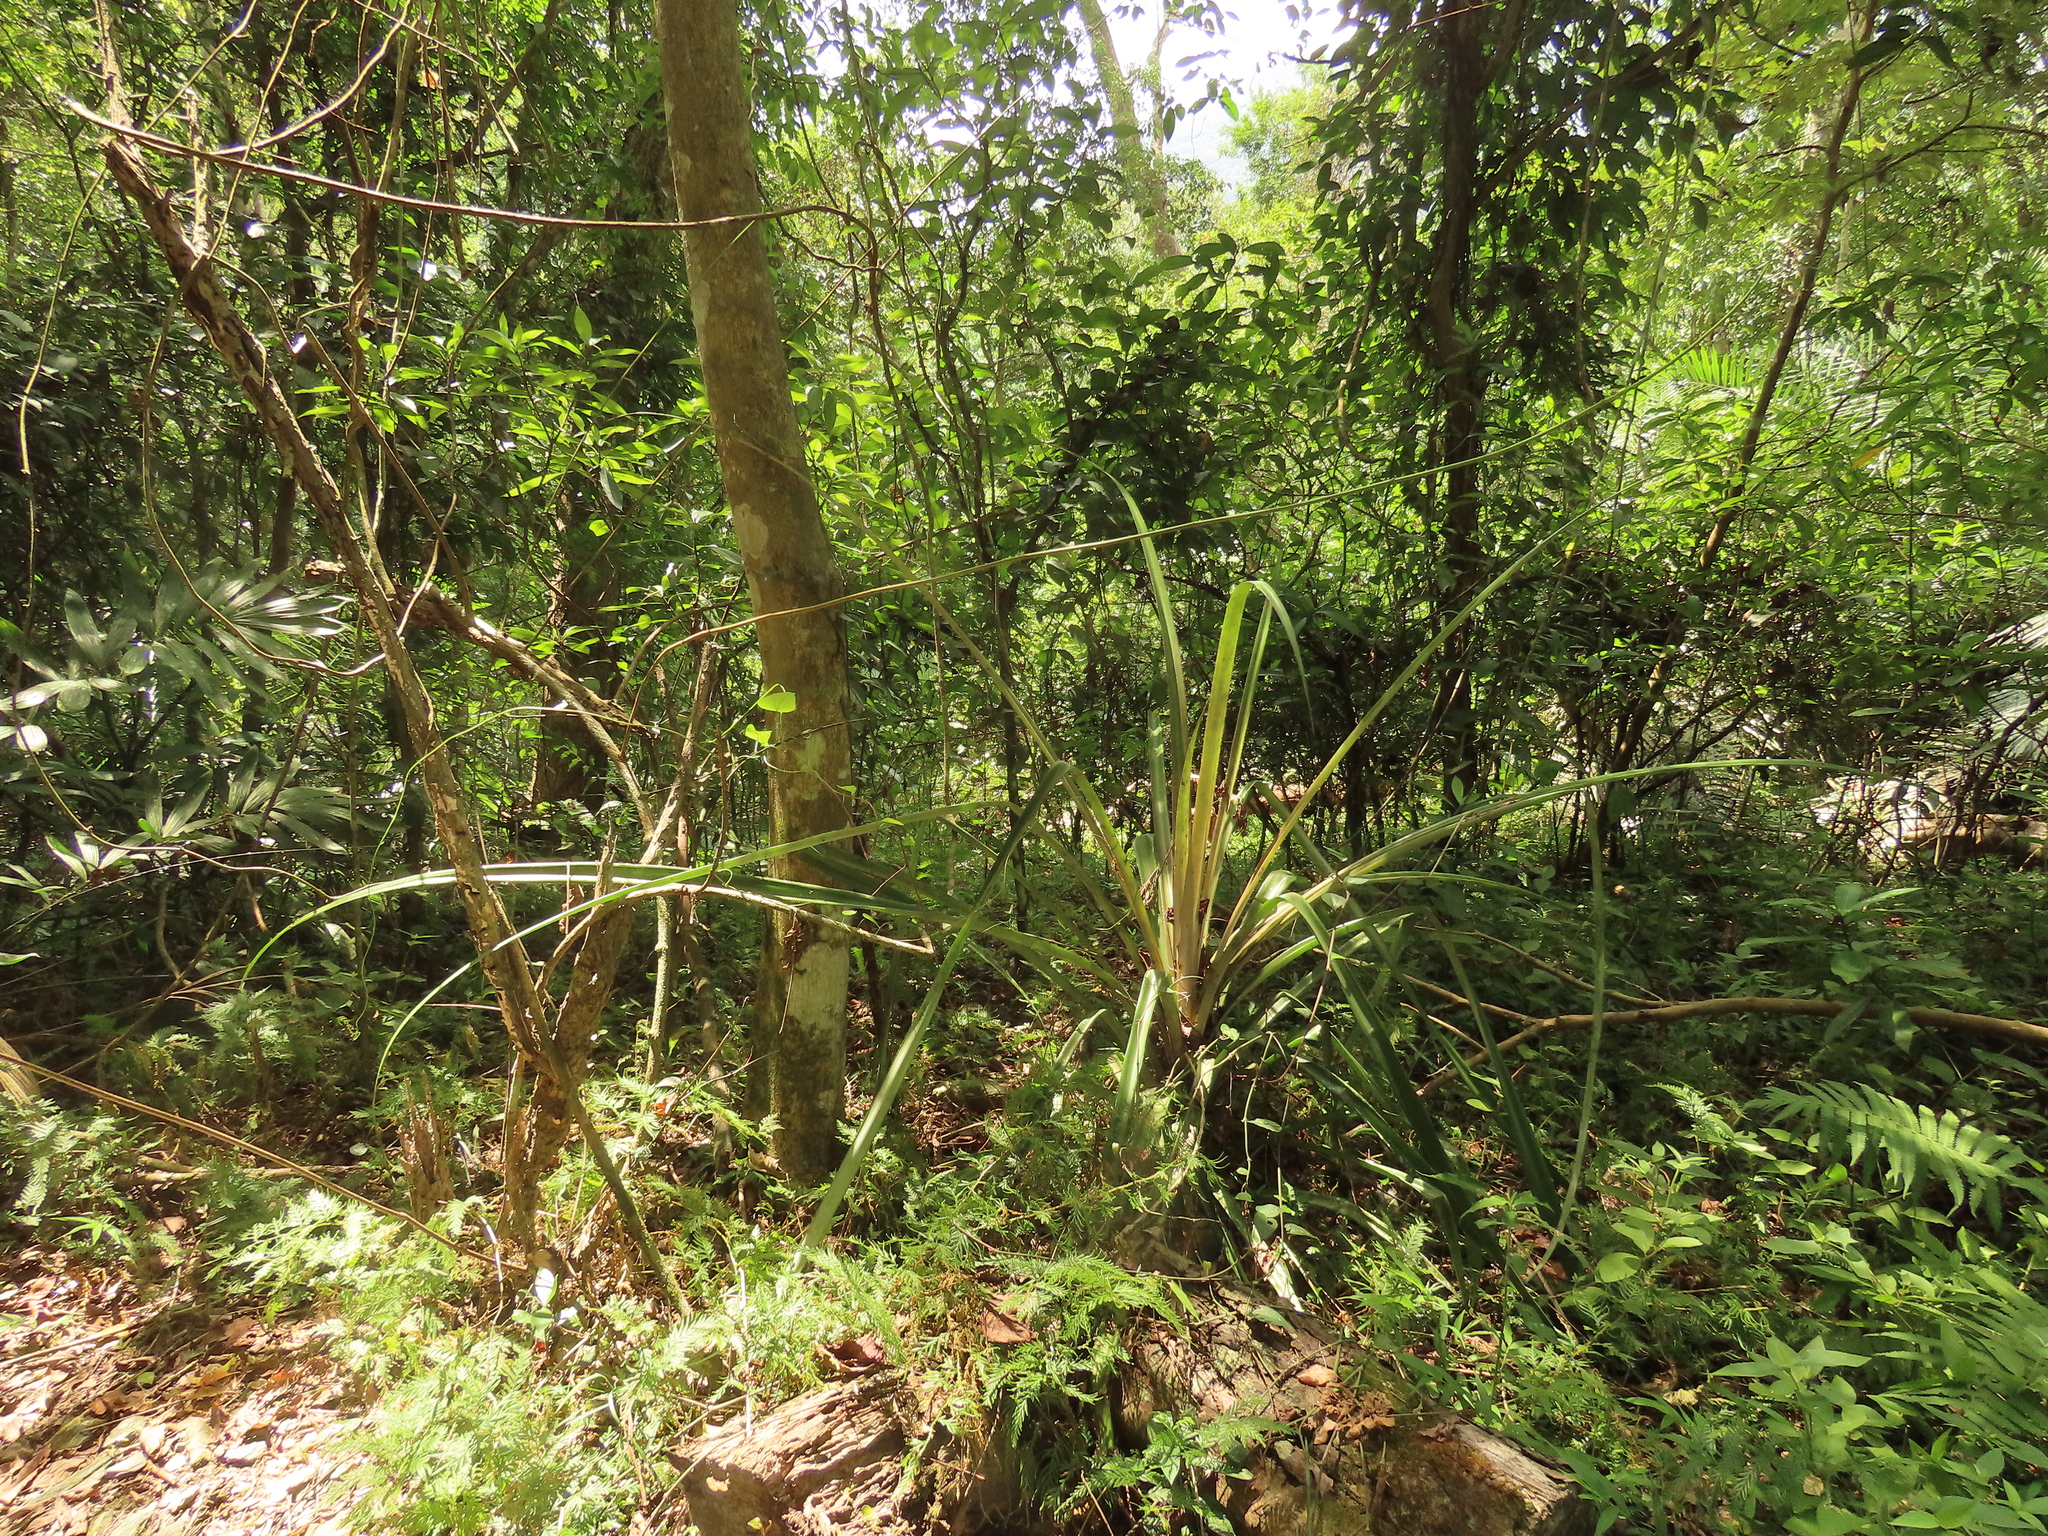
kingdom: Plantae
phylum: Tracheophyta
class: Liliopsida
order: Poales
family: Bromeliaceae
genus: Ananas
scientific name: Ananas comosus
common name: Pineapple
